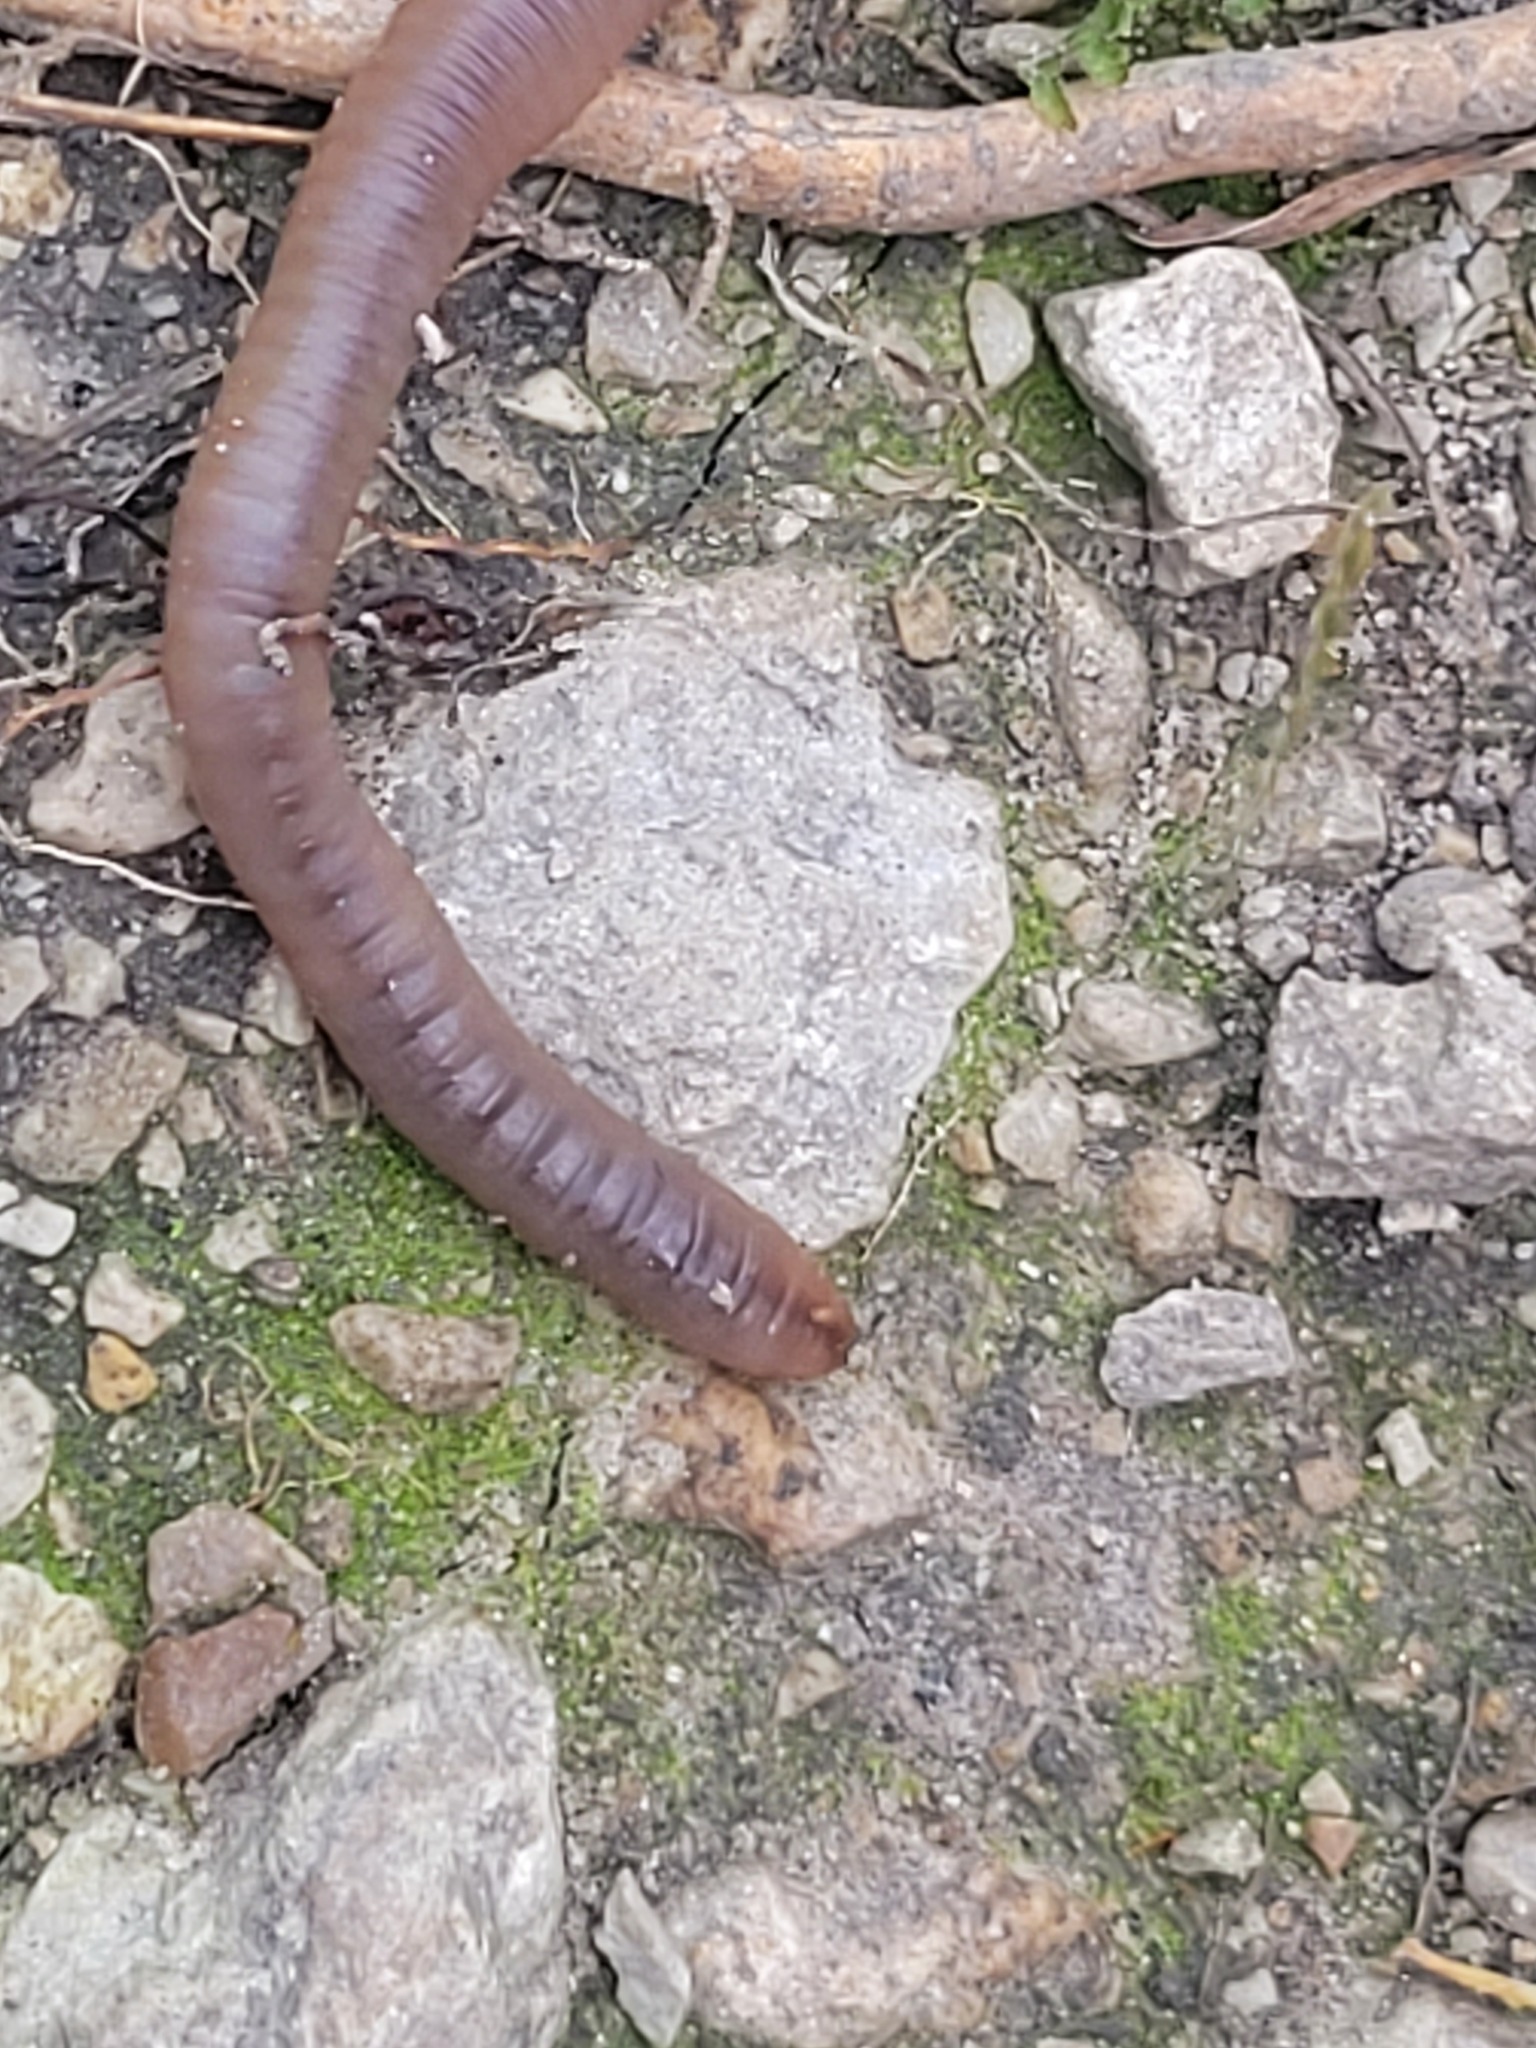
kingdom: Animalia
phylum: Annelida
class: Clitellata
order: Crassiclitellata
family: Lumbricidae
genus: Lumbricus
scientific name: Lumbricus terrestris
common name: Common earthworm
